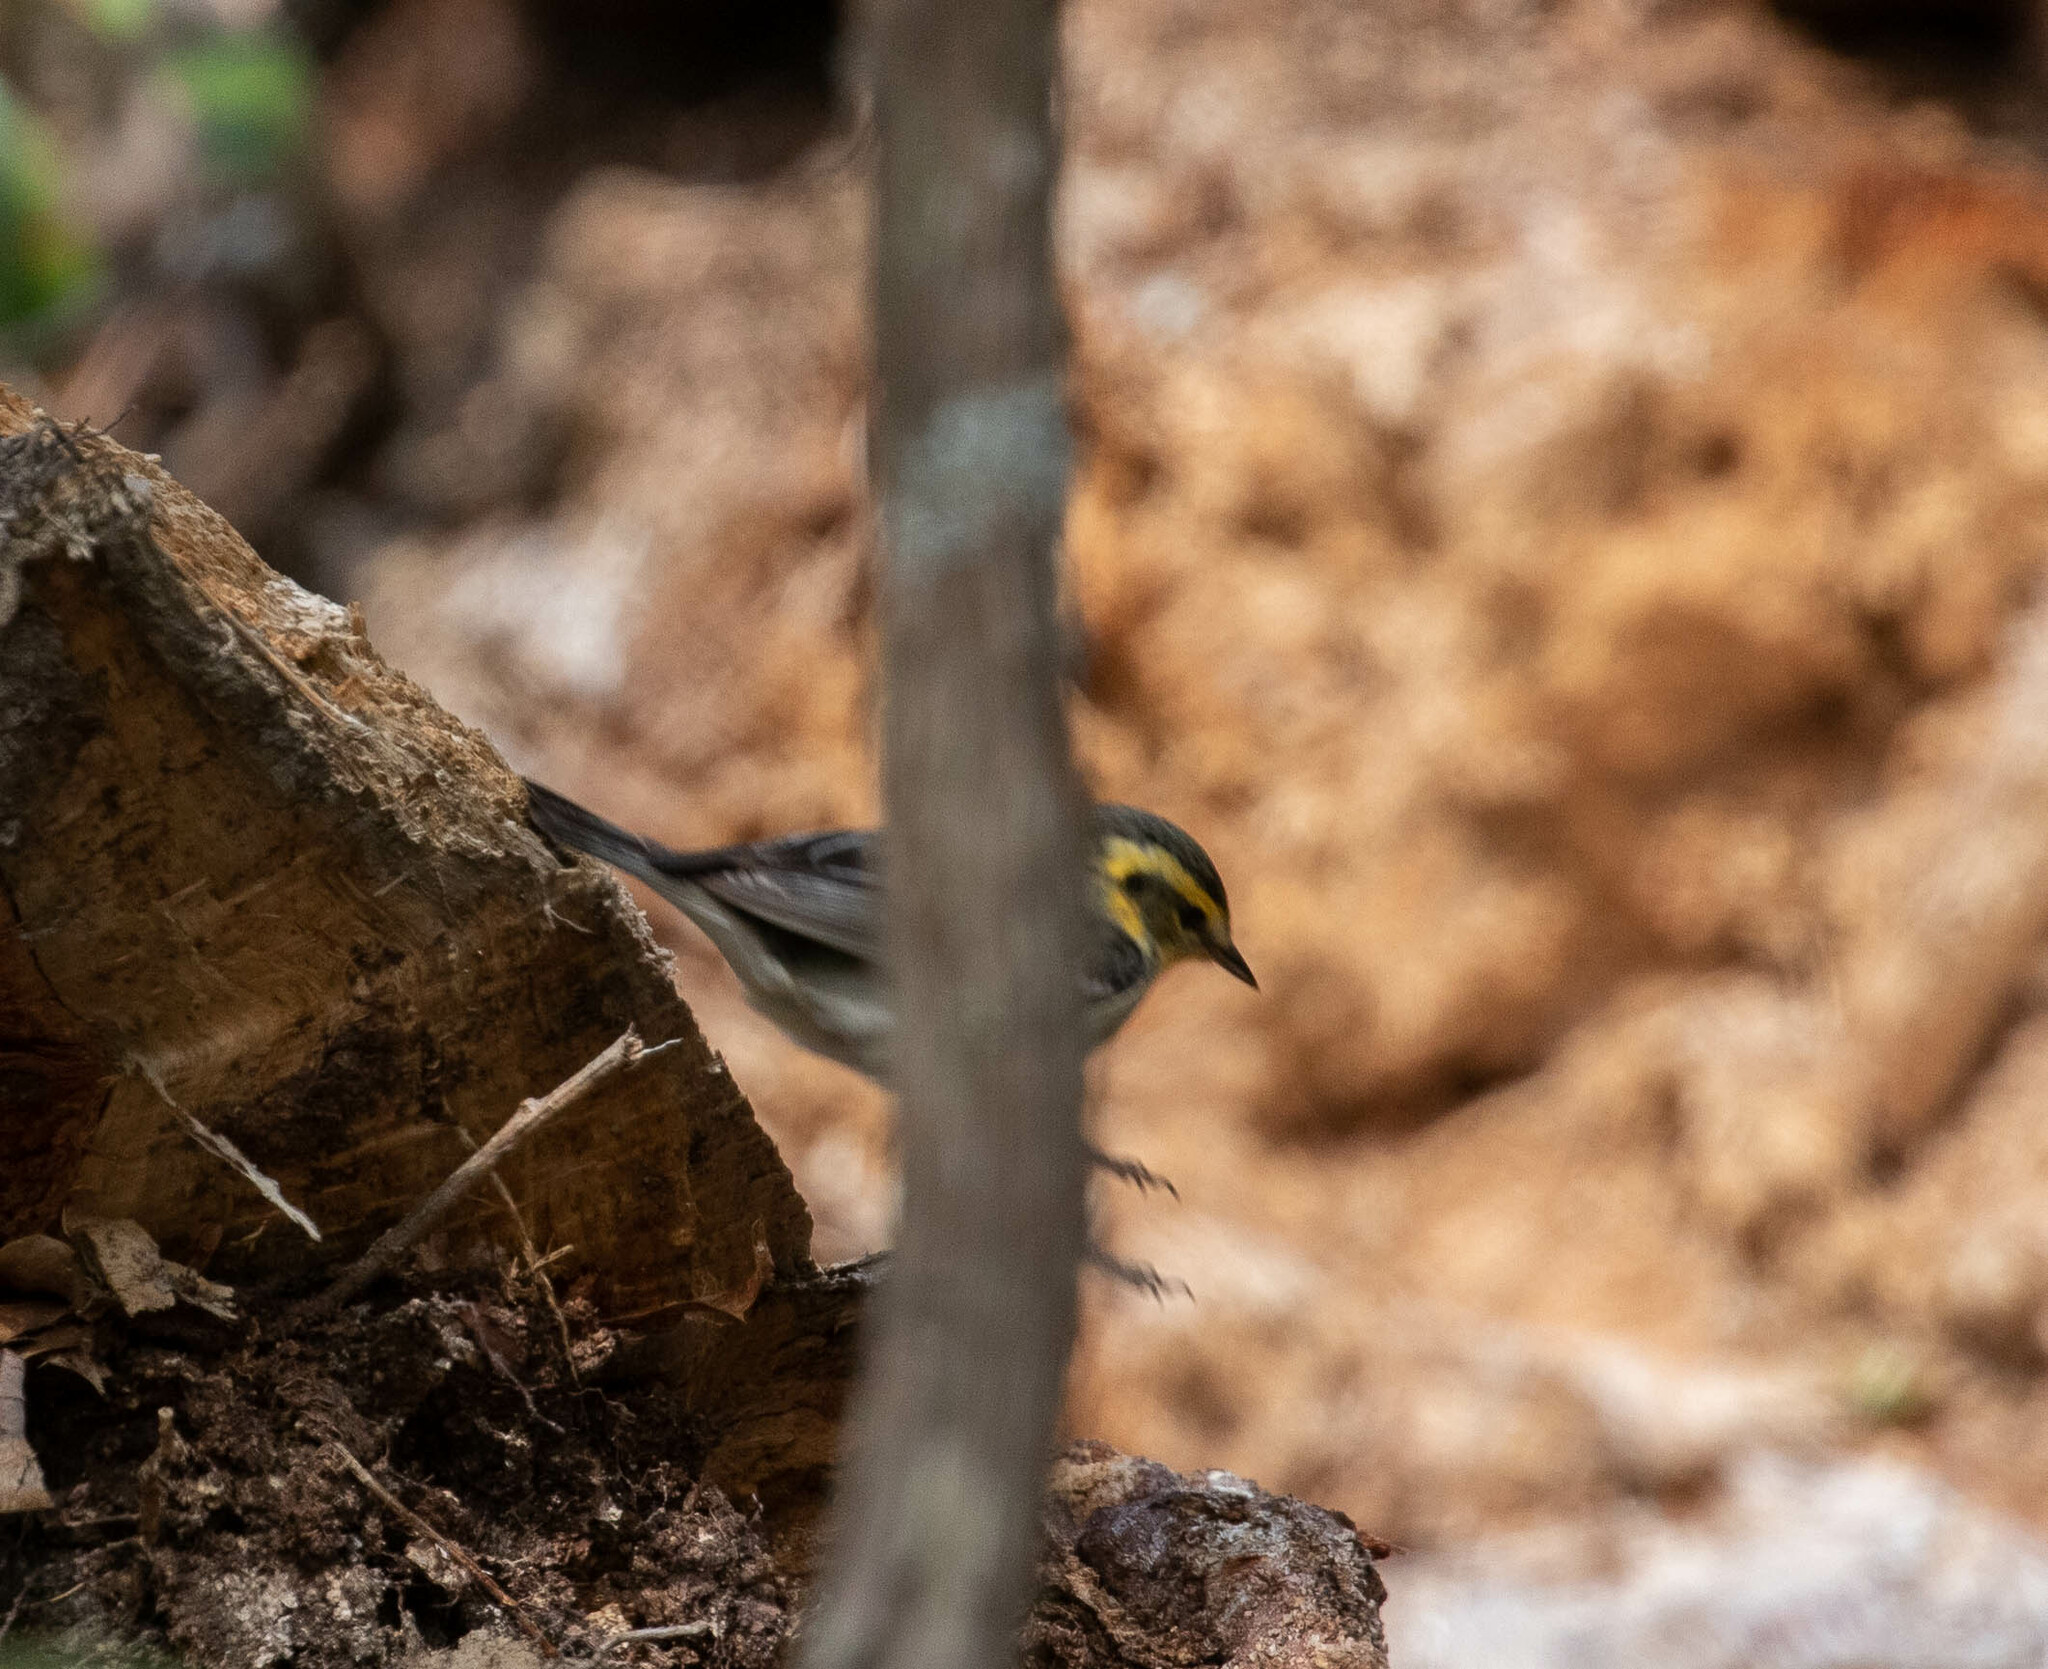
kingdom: Animalia
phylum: Chordata
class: Aves
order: Passeriformes
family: Parulidae
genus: Setophaga
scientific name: Setophaga fusca
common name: Blackburnian warbler
